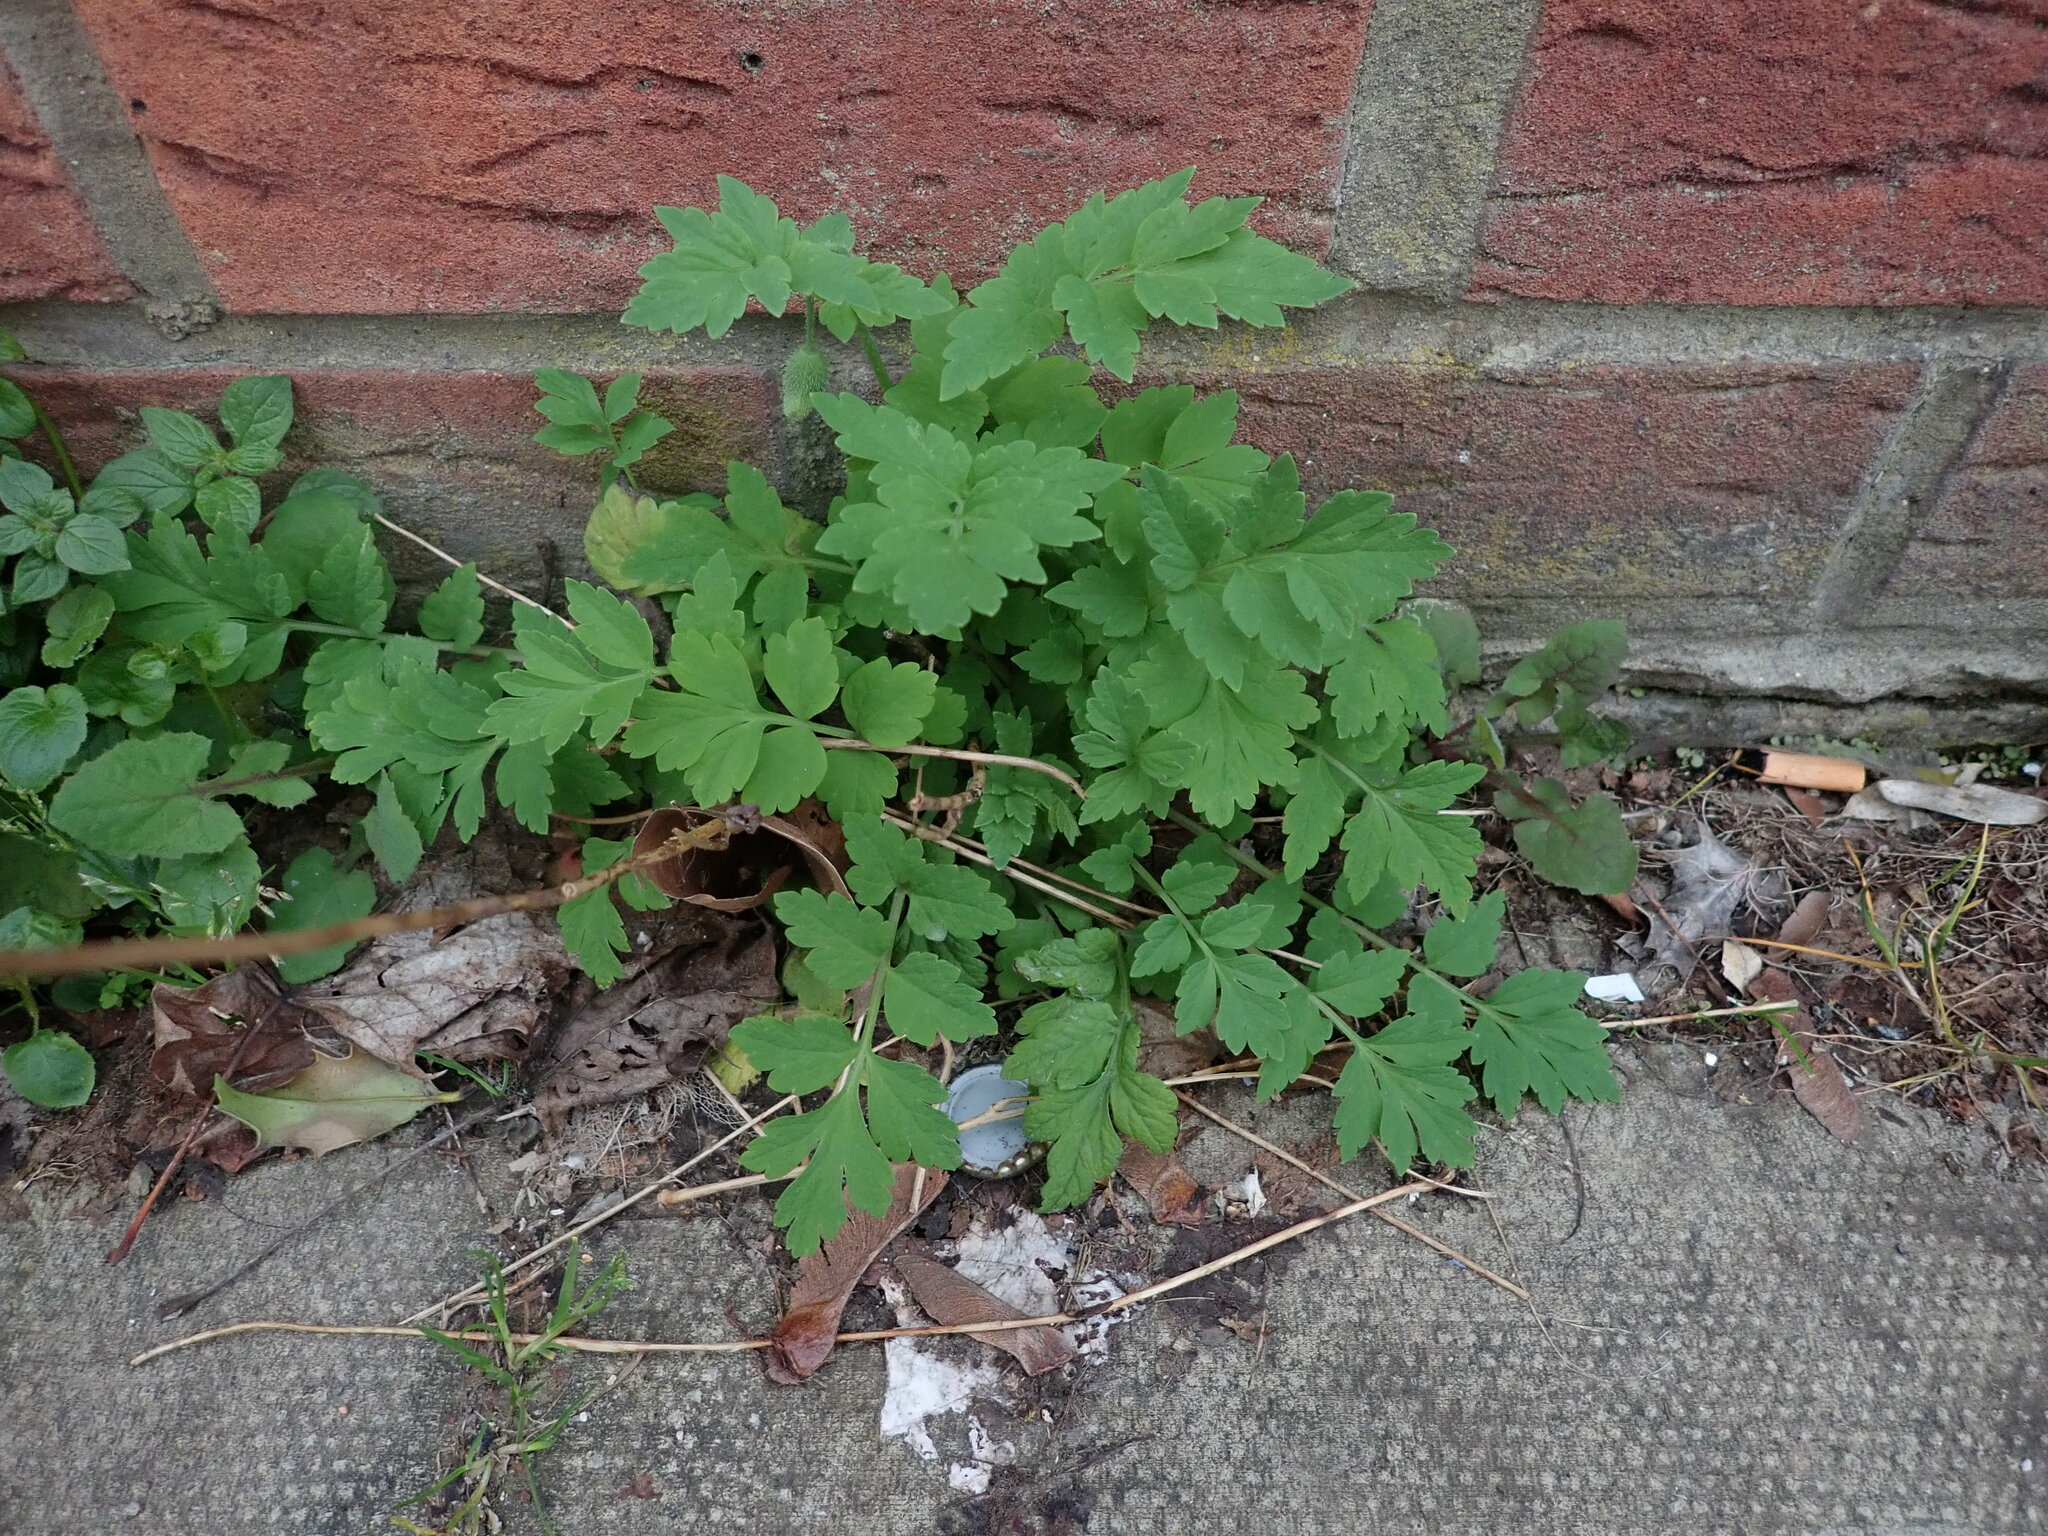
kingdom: Plantae
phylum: Tracheophyta
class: Magnoliopsida
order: Ranunculales
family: Papaveraceae
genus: Papaver
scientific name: Papaver cambricum
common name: Poppy
